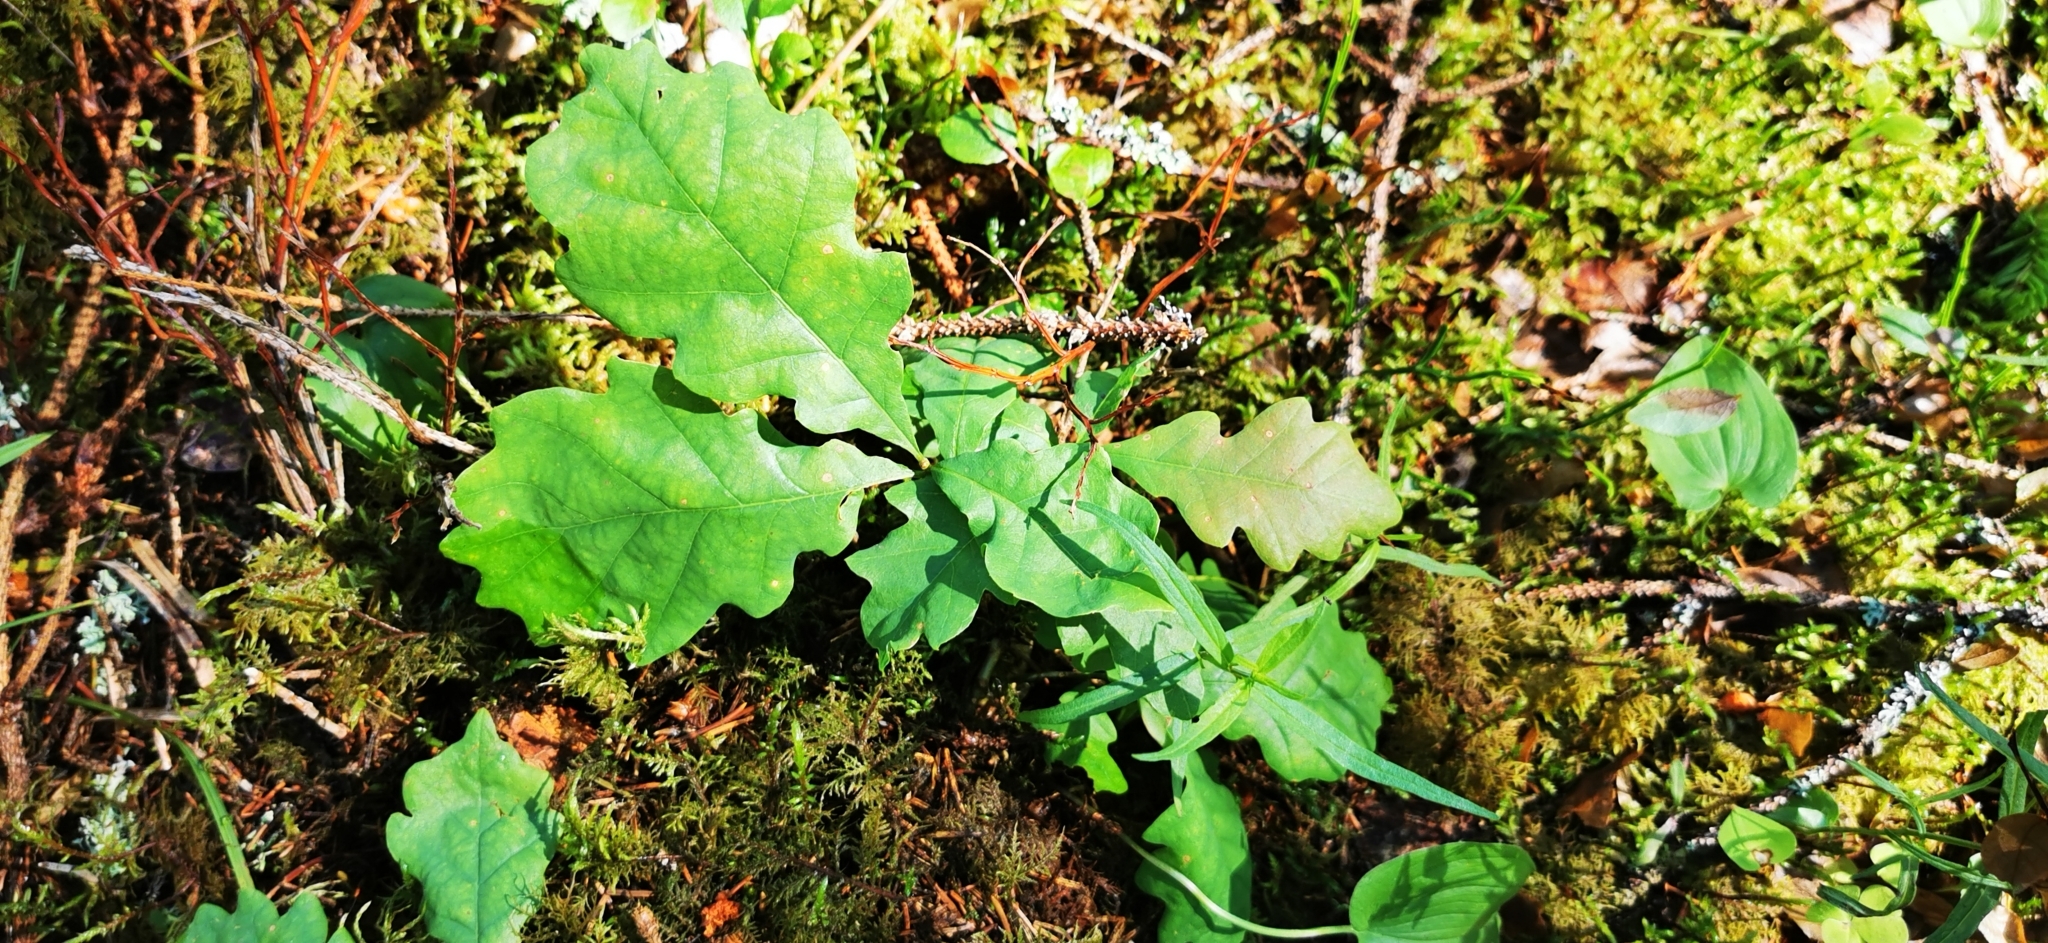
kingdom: Plantae
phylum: Tracheophyta
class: Magnoliopsida
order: Fagales
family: Fagaceae
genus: Quercus
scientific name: Quercus robur
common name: Pedunculate oak
